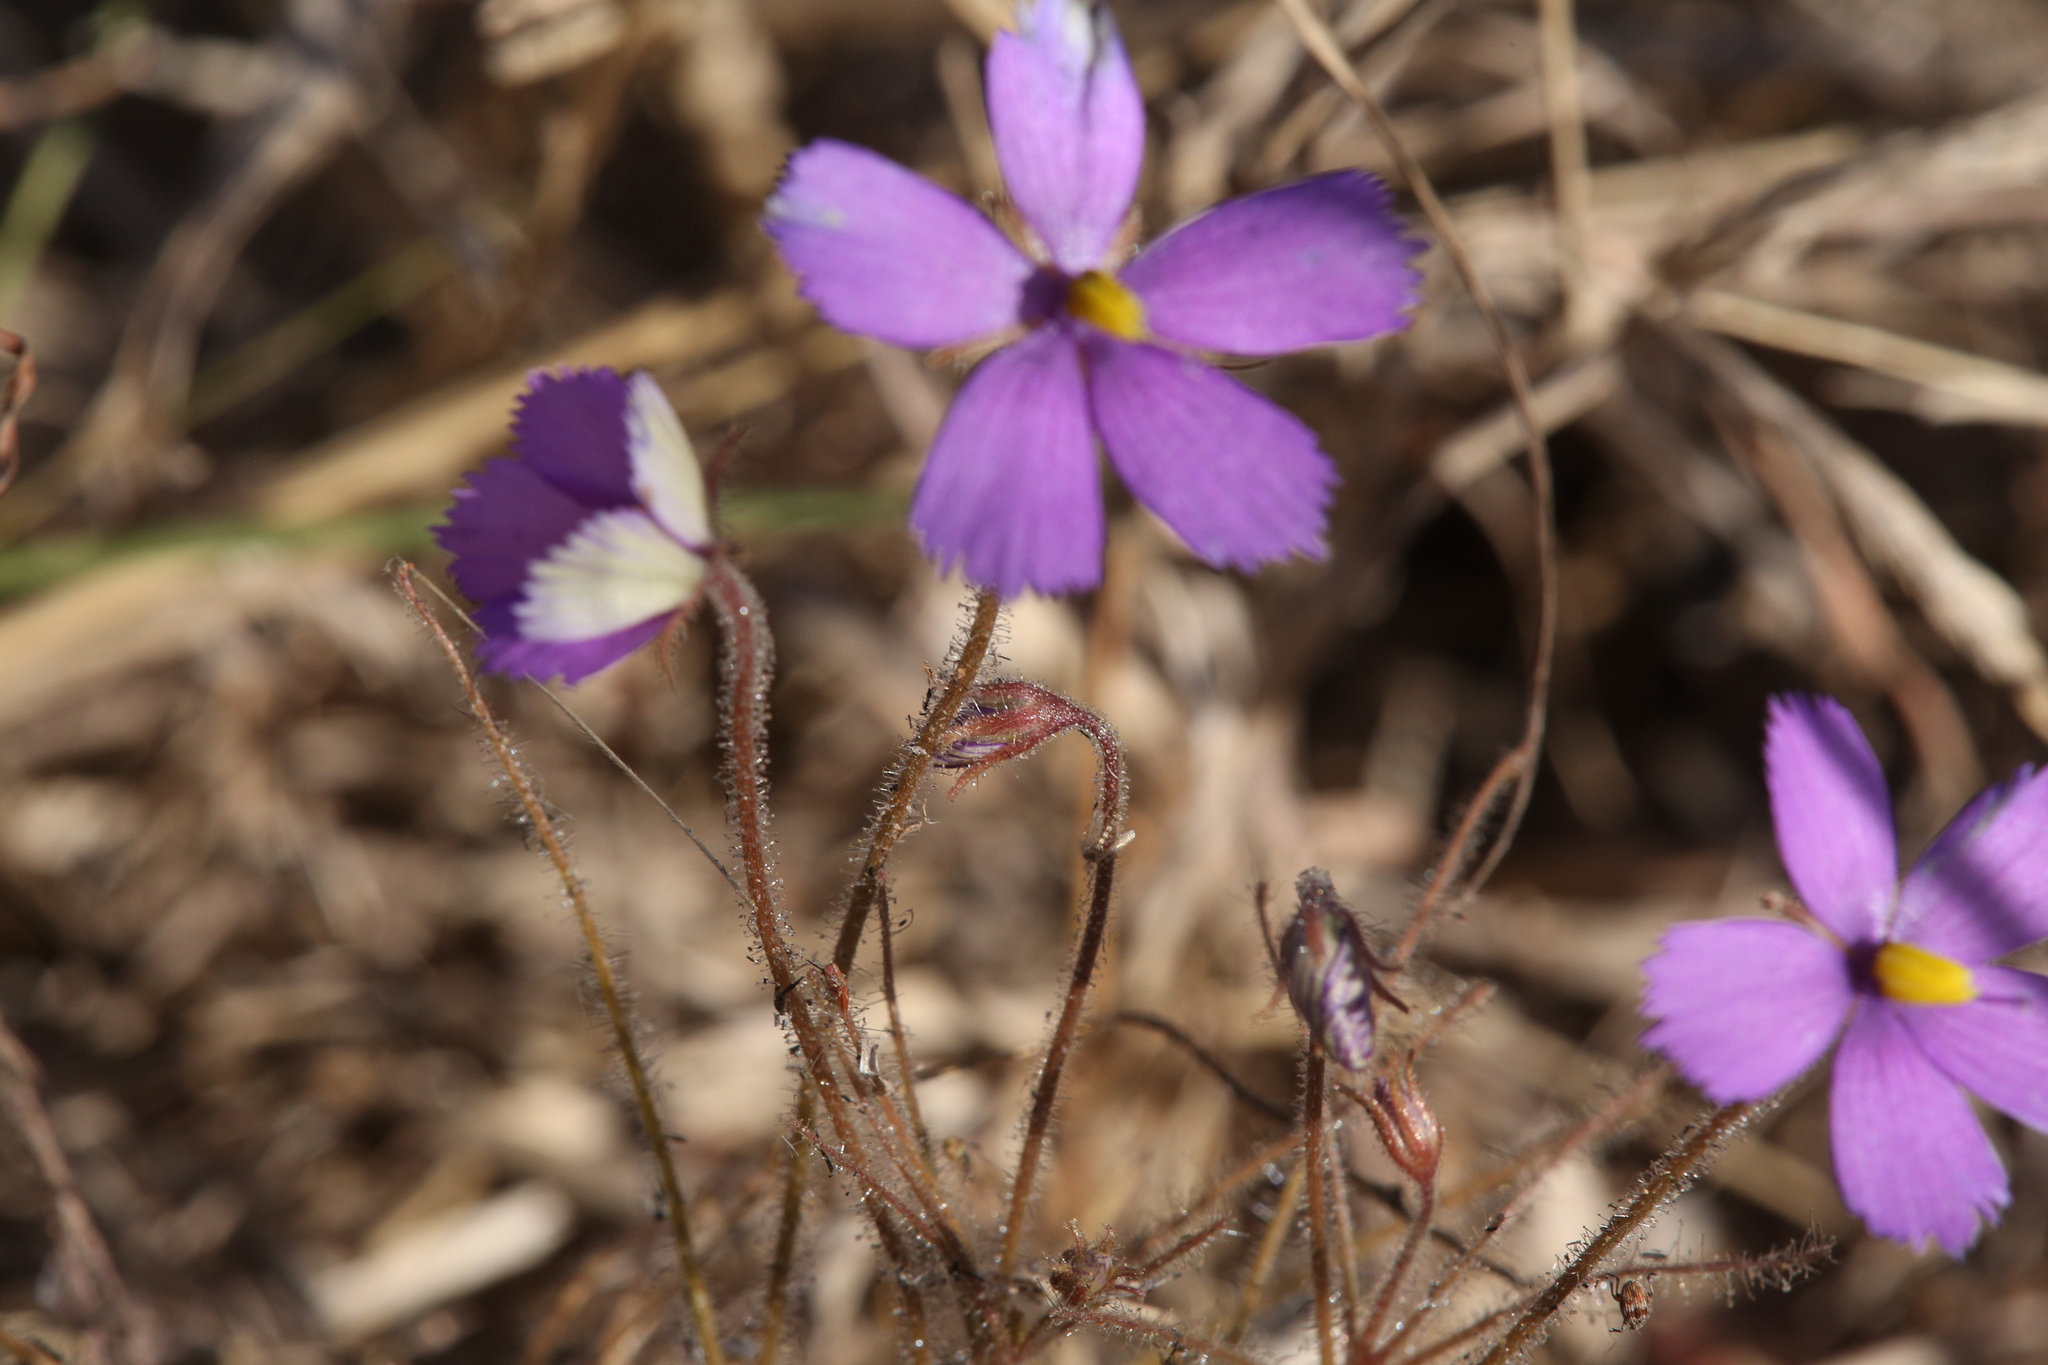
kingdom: Plantae
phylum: Tracheophyta
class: Magnoliopsida
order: Lamiales
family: Byblidaceae
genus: Byblis
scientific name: Byblis filifolia
